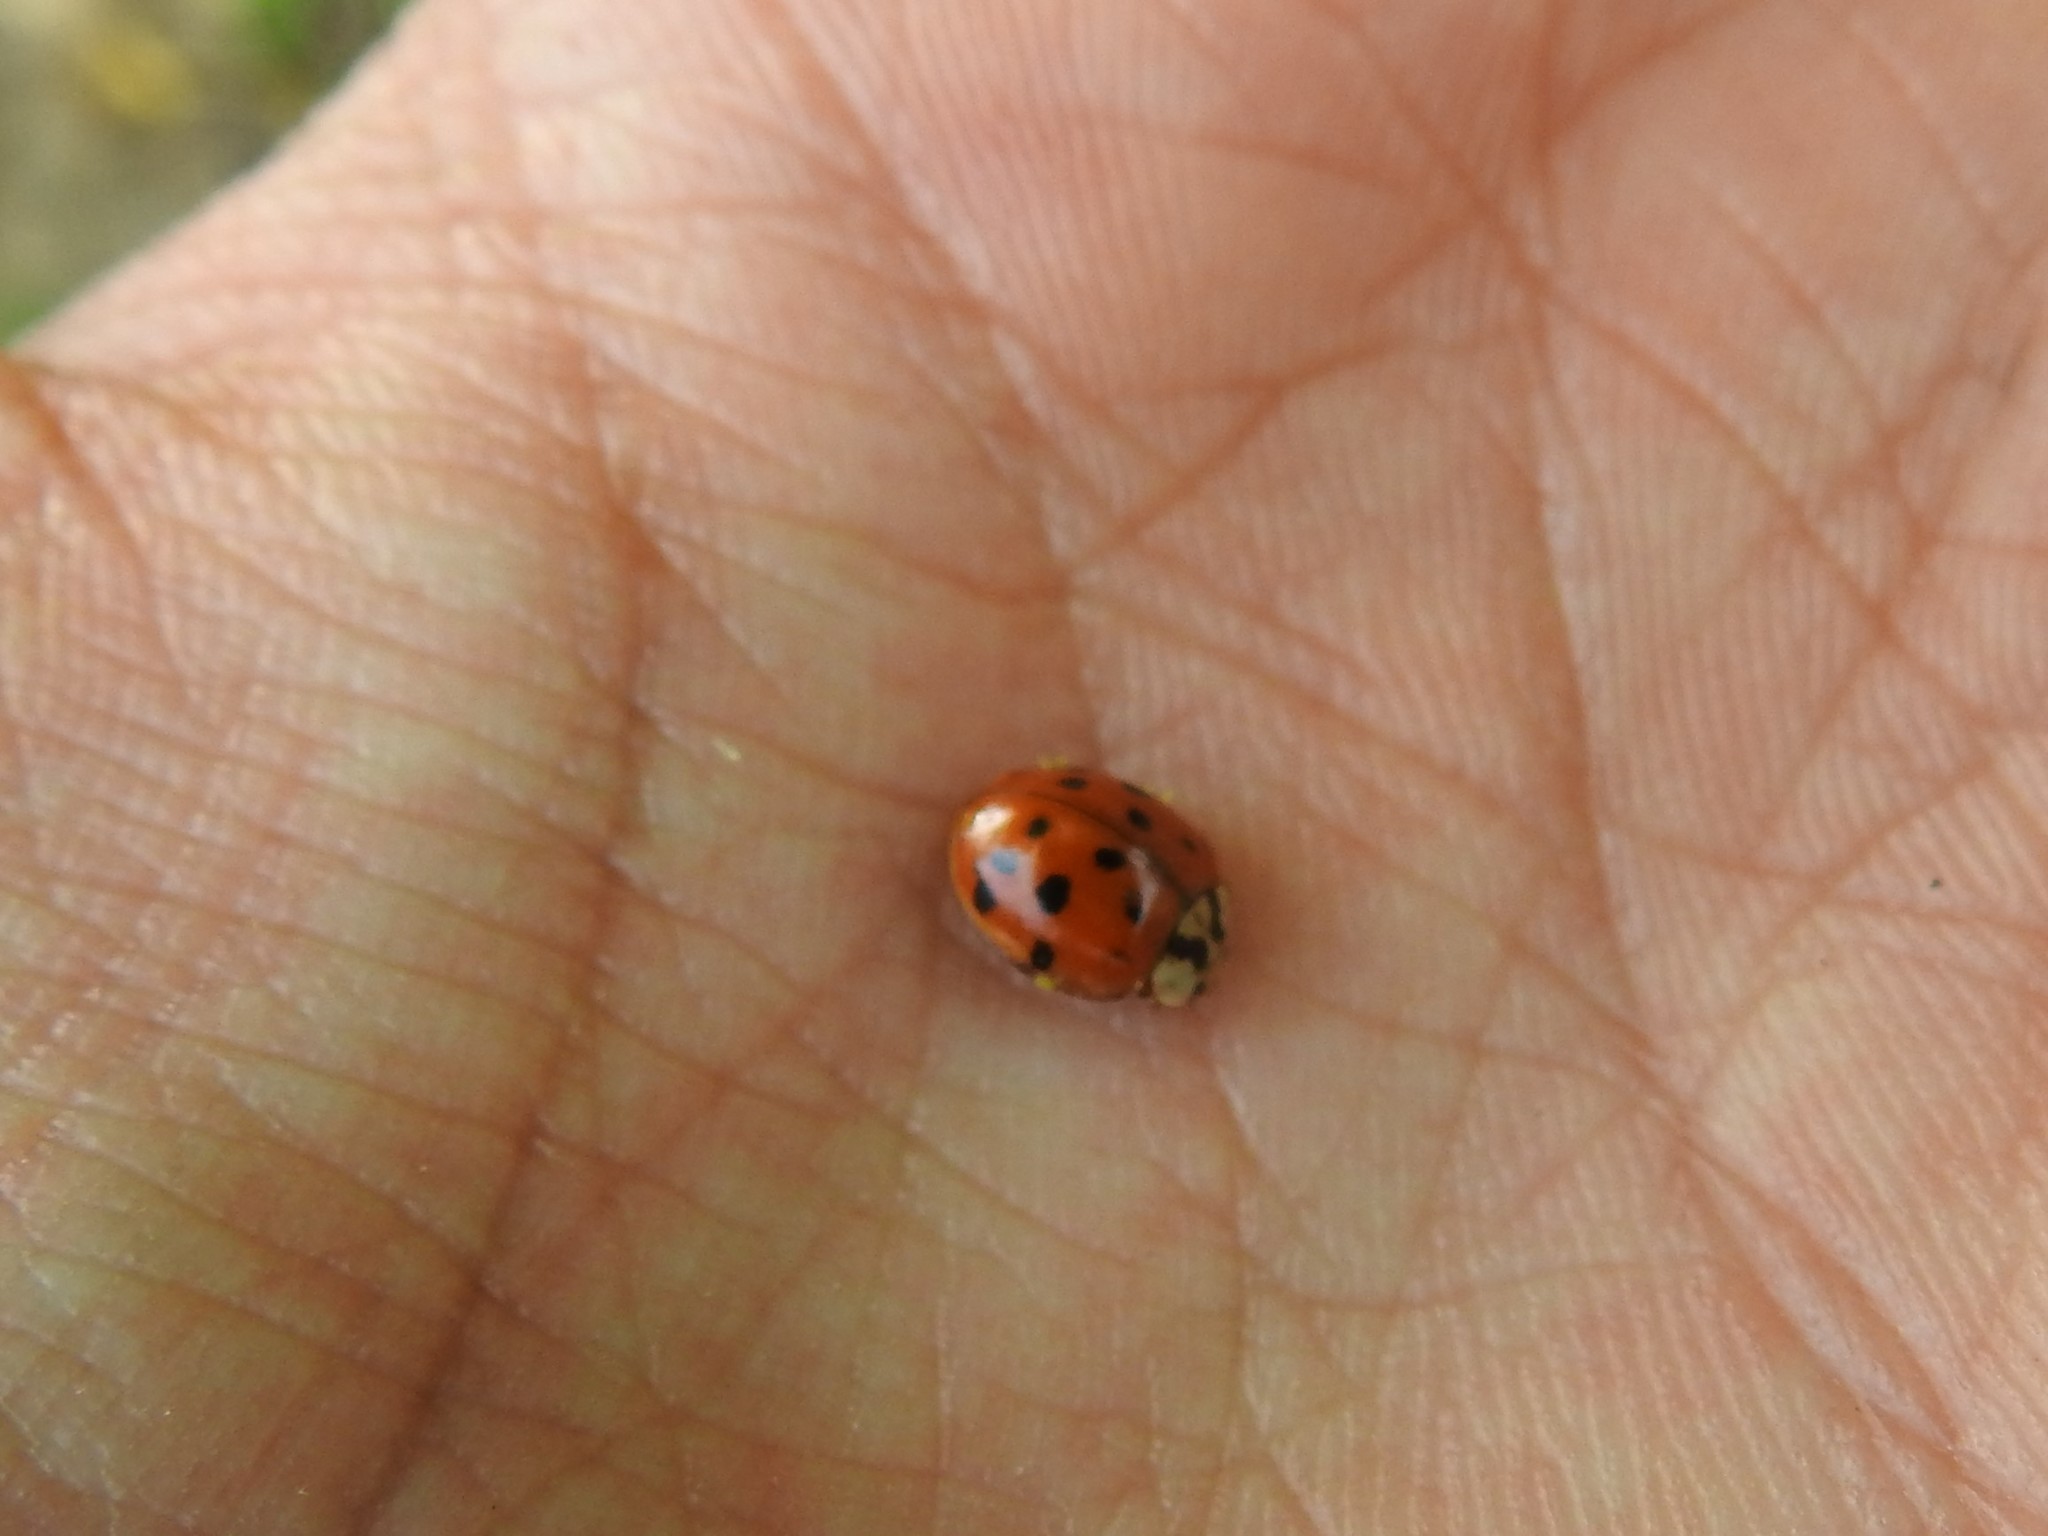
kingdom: Fungi
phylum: Ascomycota
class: Laboulbeniomycetes
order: Laboulbeniales
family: Laboulbeniaceae
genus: Hesperomyces
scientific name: Hesperomyces harmoniae
